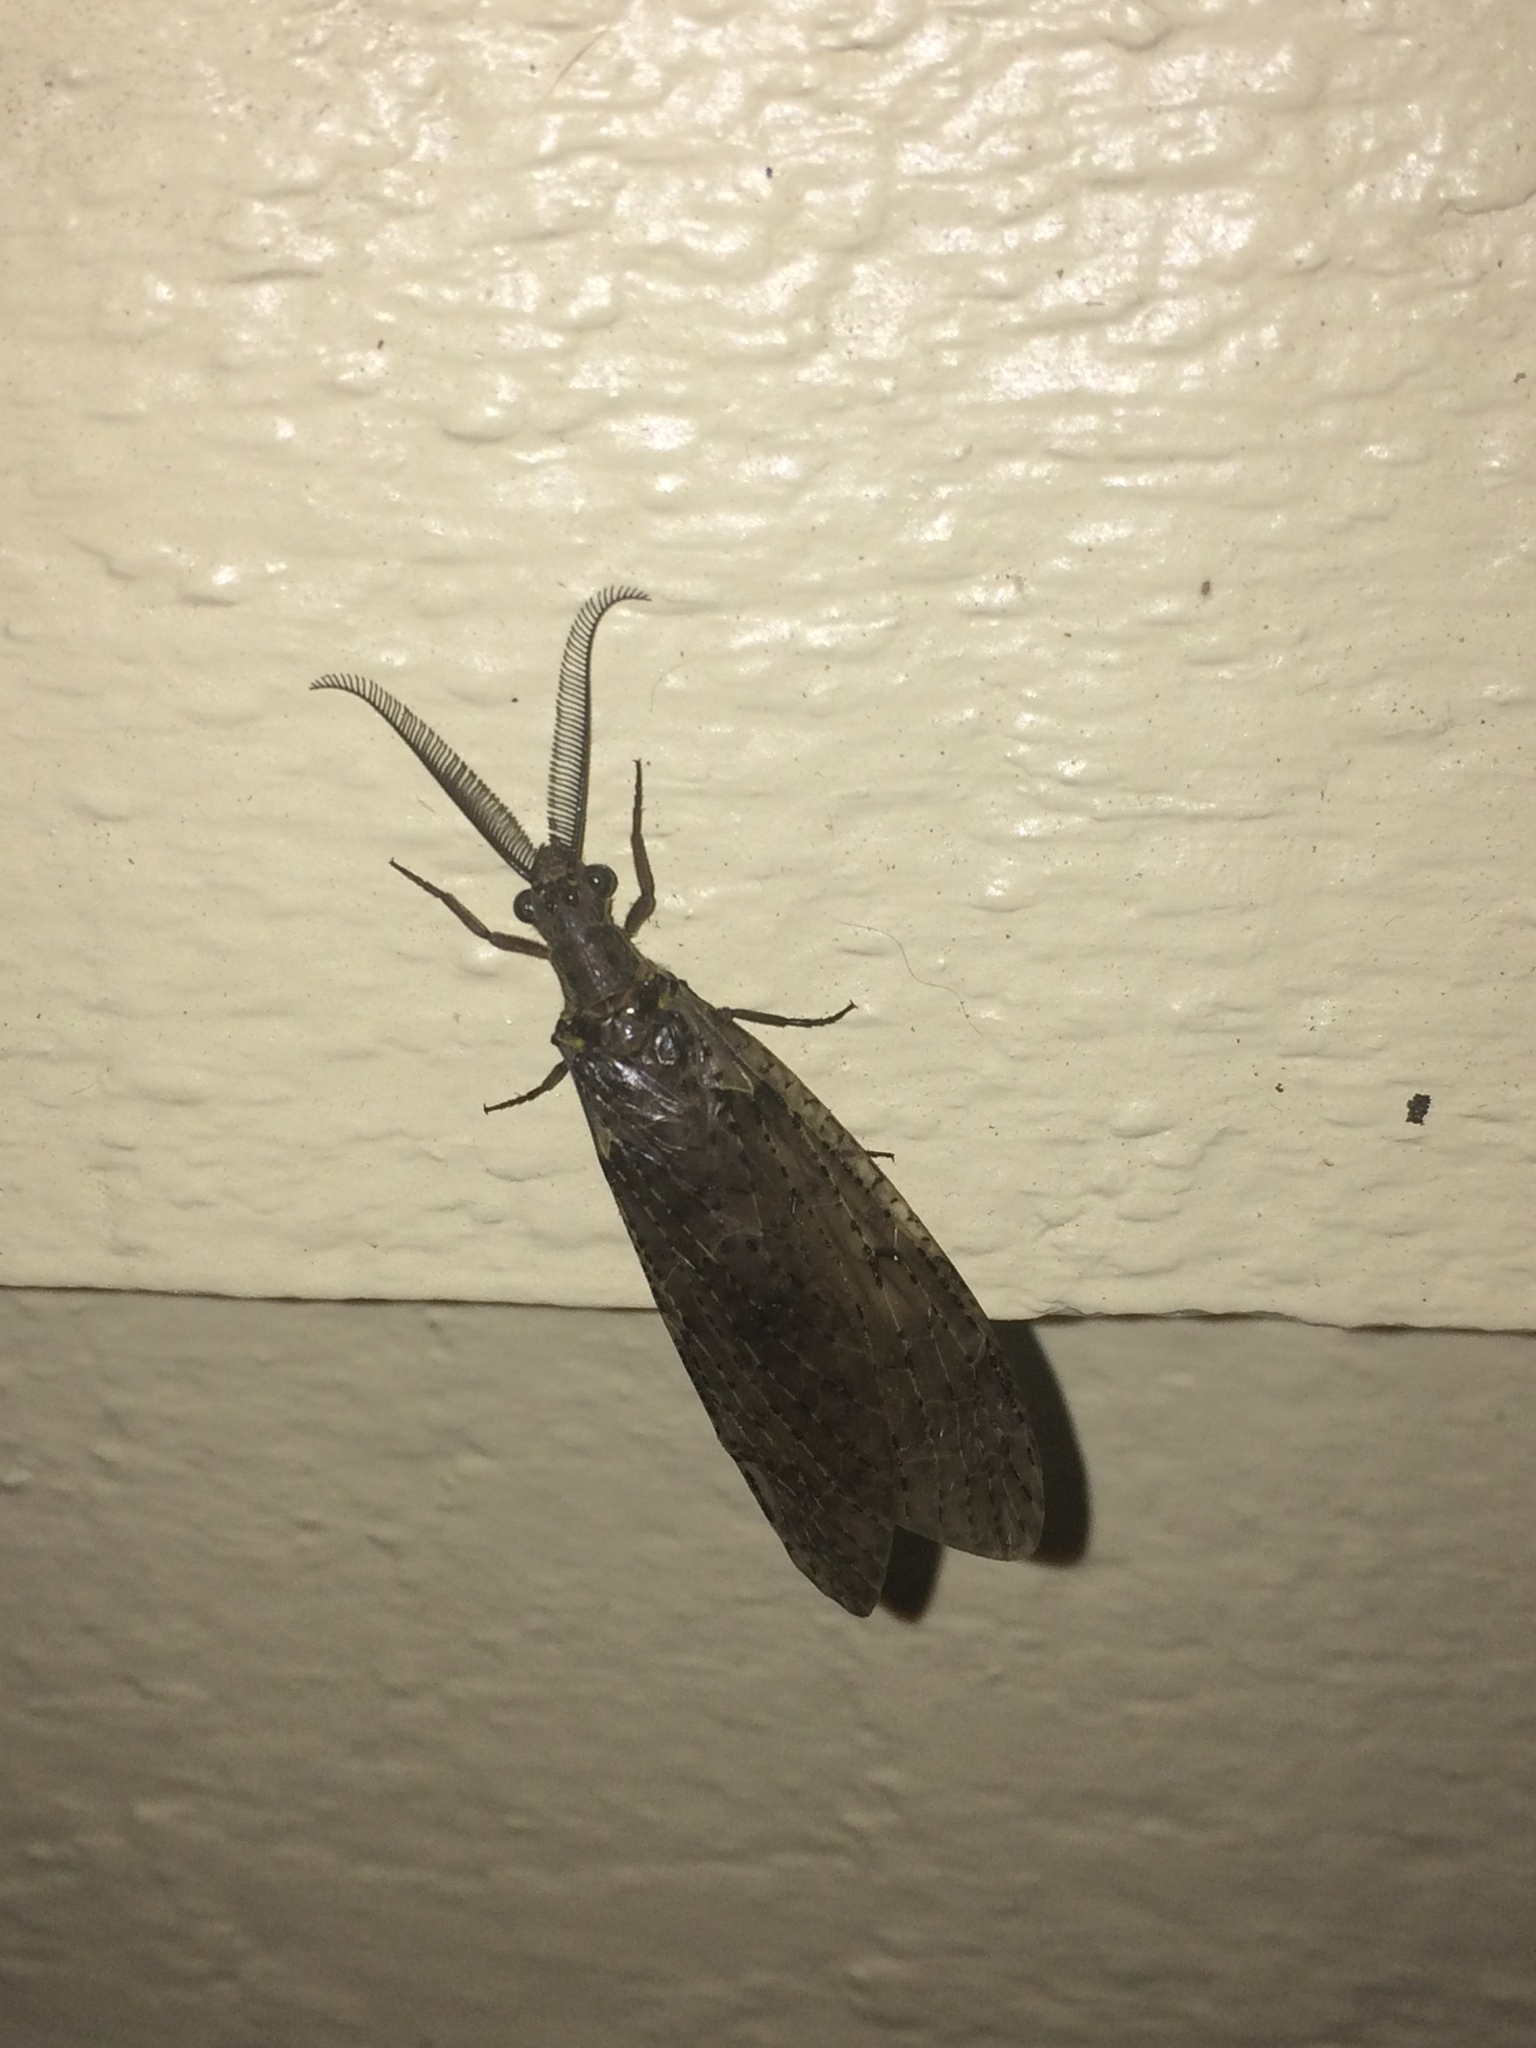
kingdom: Animalia
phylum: Arthropoda
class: Insecta
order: Megaloptera
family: Corydalidae
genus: Chauliodes
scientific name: Chauliodes rastricornis
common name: Spring fishfly
